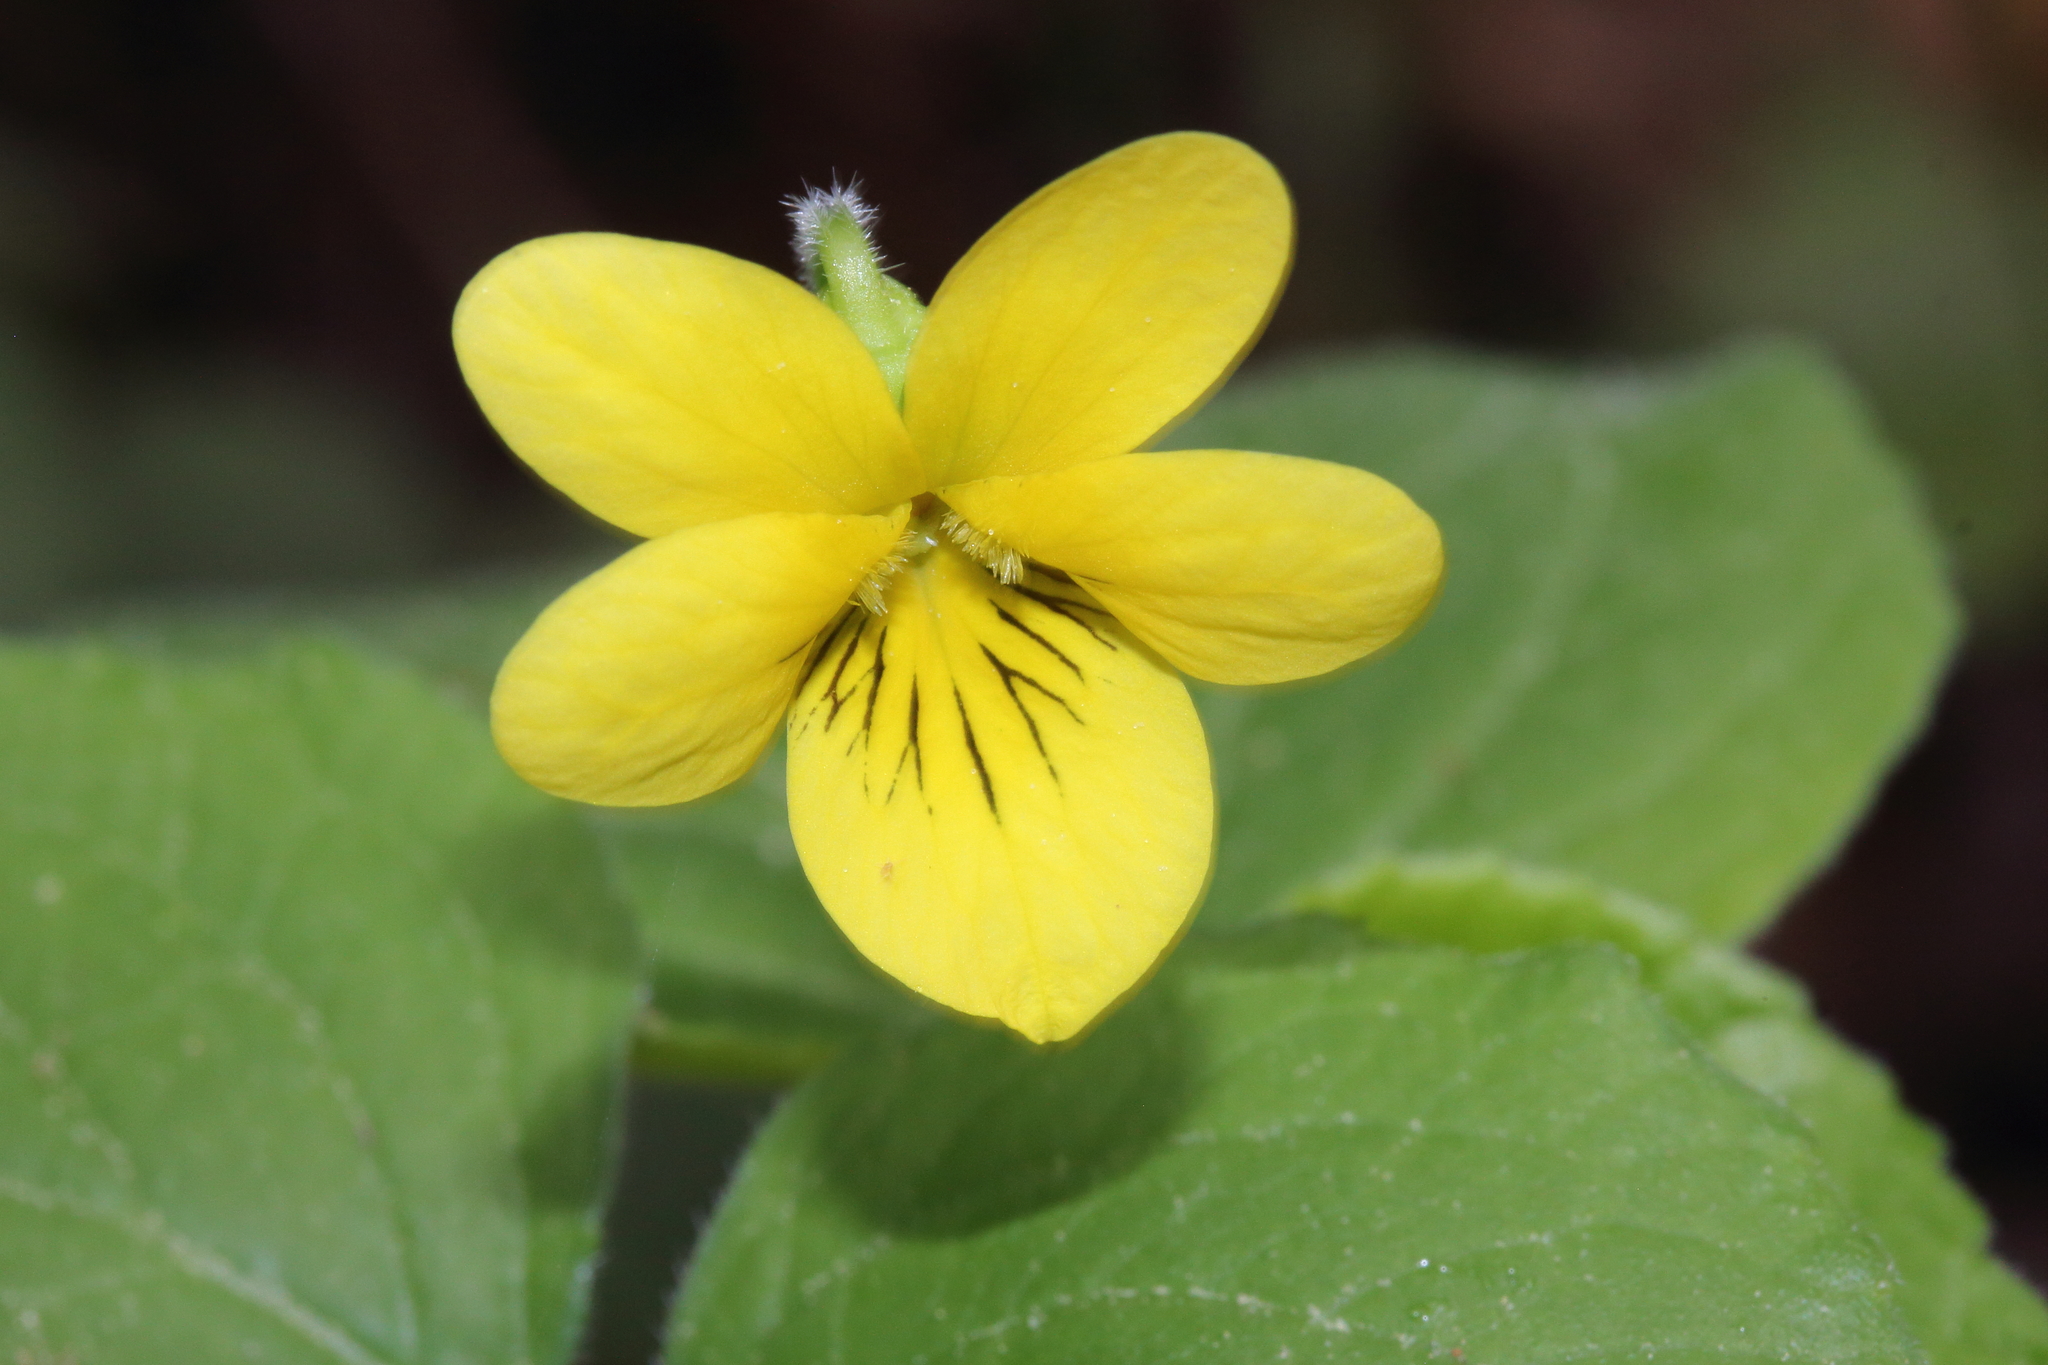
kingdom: Plantae
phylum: Tracheophyta
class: Magnoliopsida
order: Malpighiales
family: Violaceae
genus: Viola
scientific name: Viola glabella
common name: Stream violet
